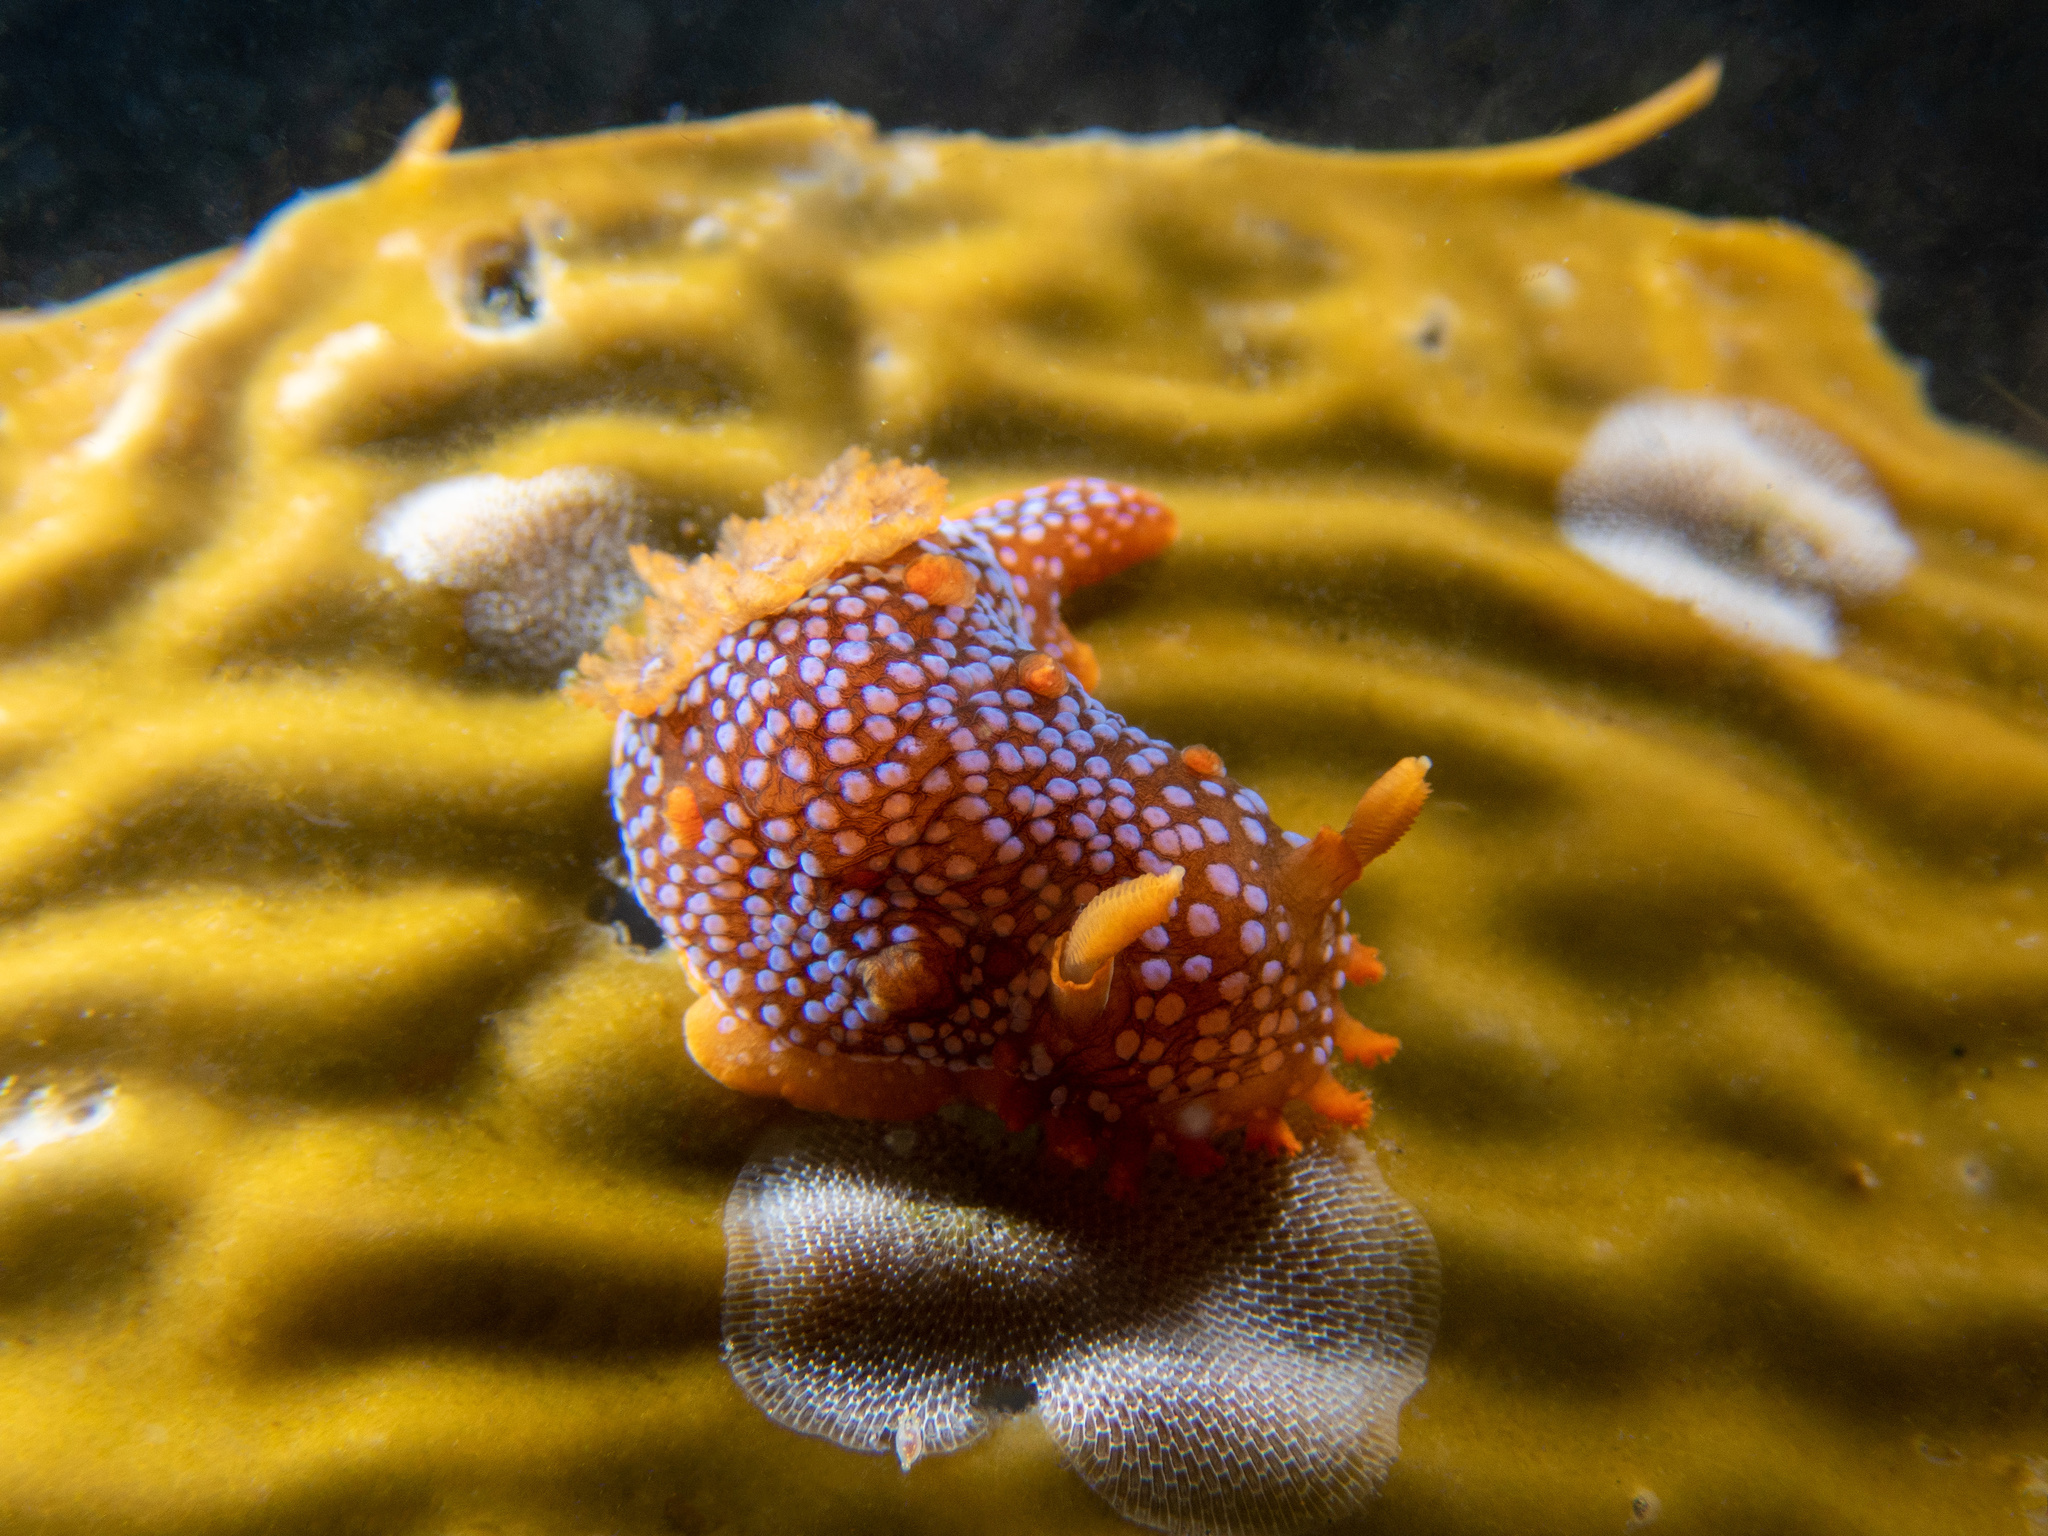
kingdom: Animalia
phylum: Mollusca
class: Gastropoda
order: Nudibranchia
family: Polyceridae
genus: Triopha
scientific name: Triopha maculata
